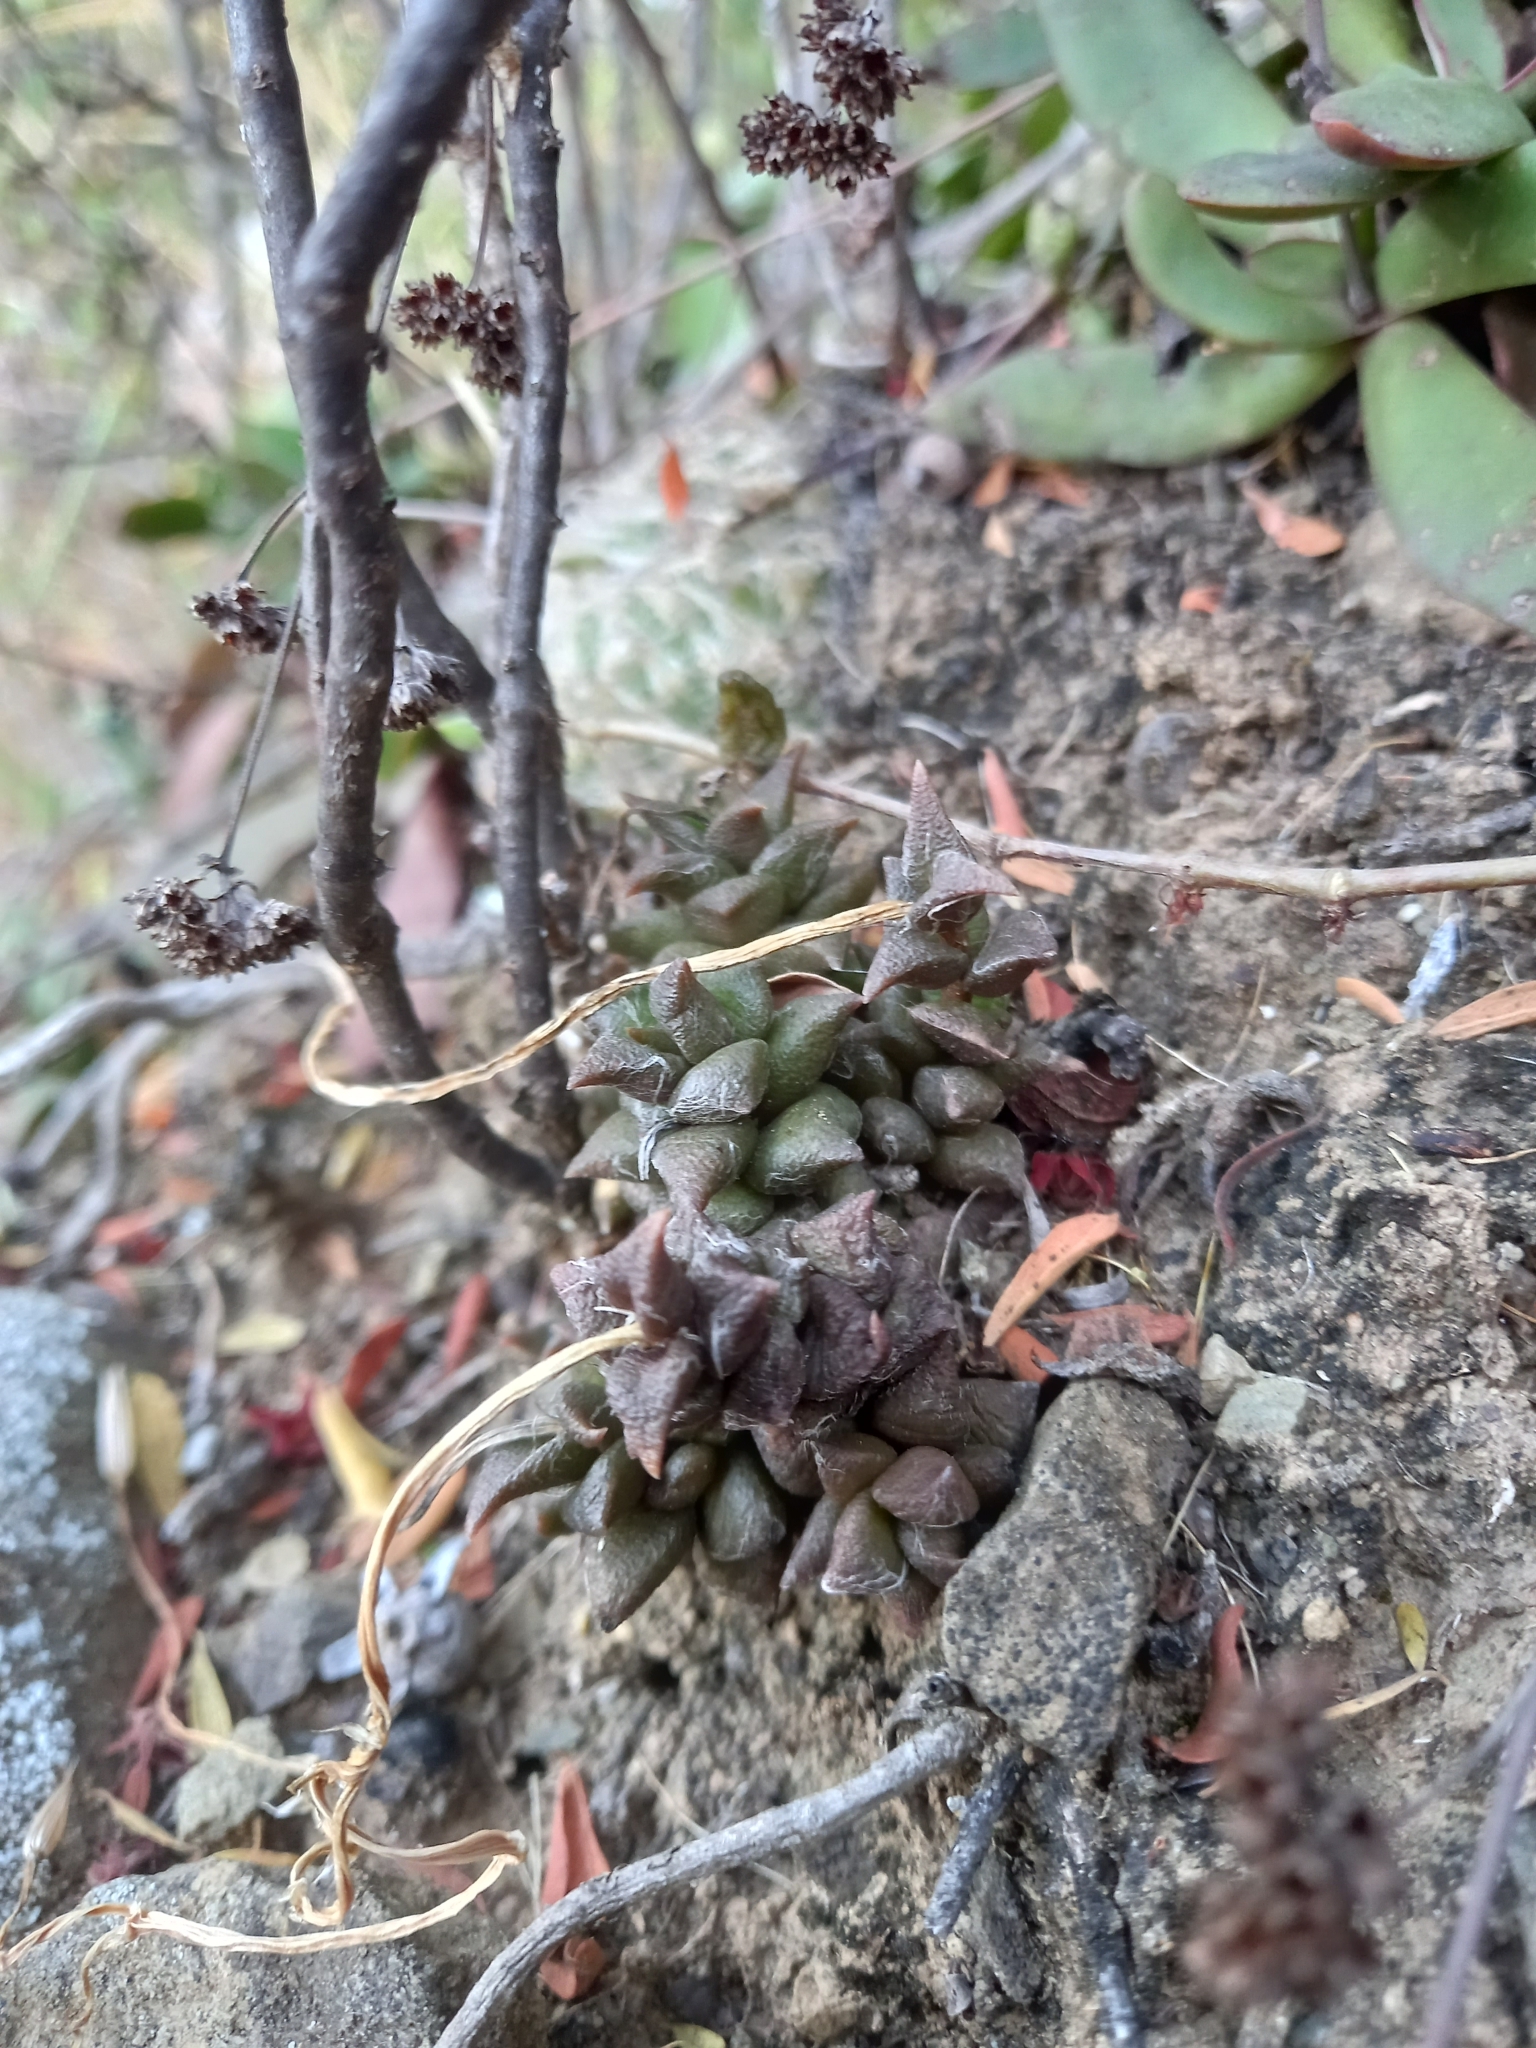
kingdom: Plantae
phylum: Tracheophyta
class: Magnoliopsida
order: Caryophyllales
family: Anacampserotaceae
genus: Anacampseros
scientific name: Anacampseros arachnoides
